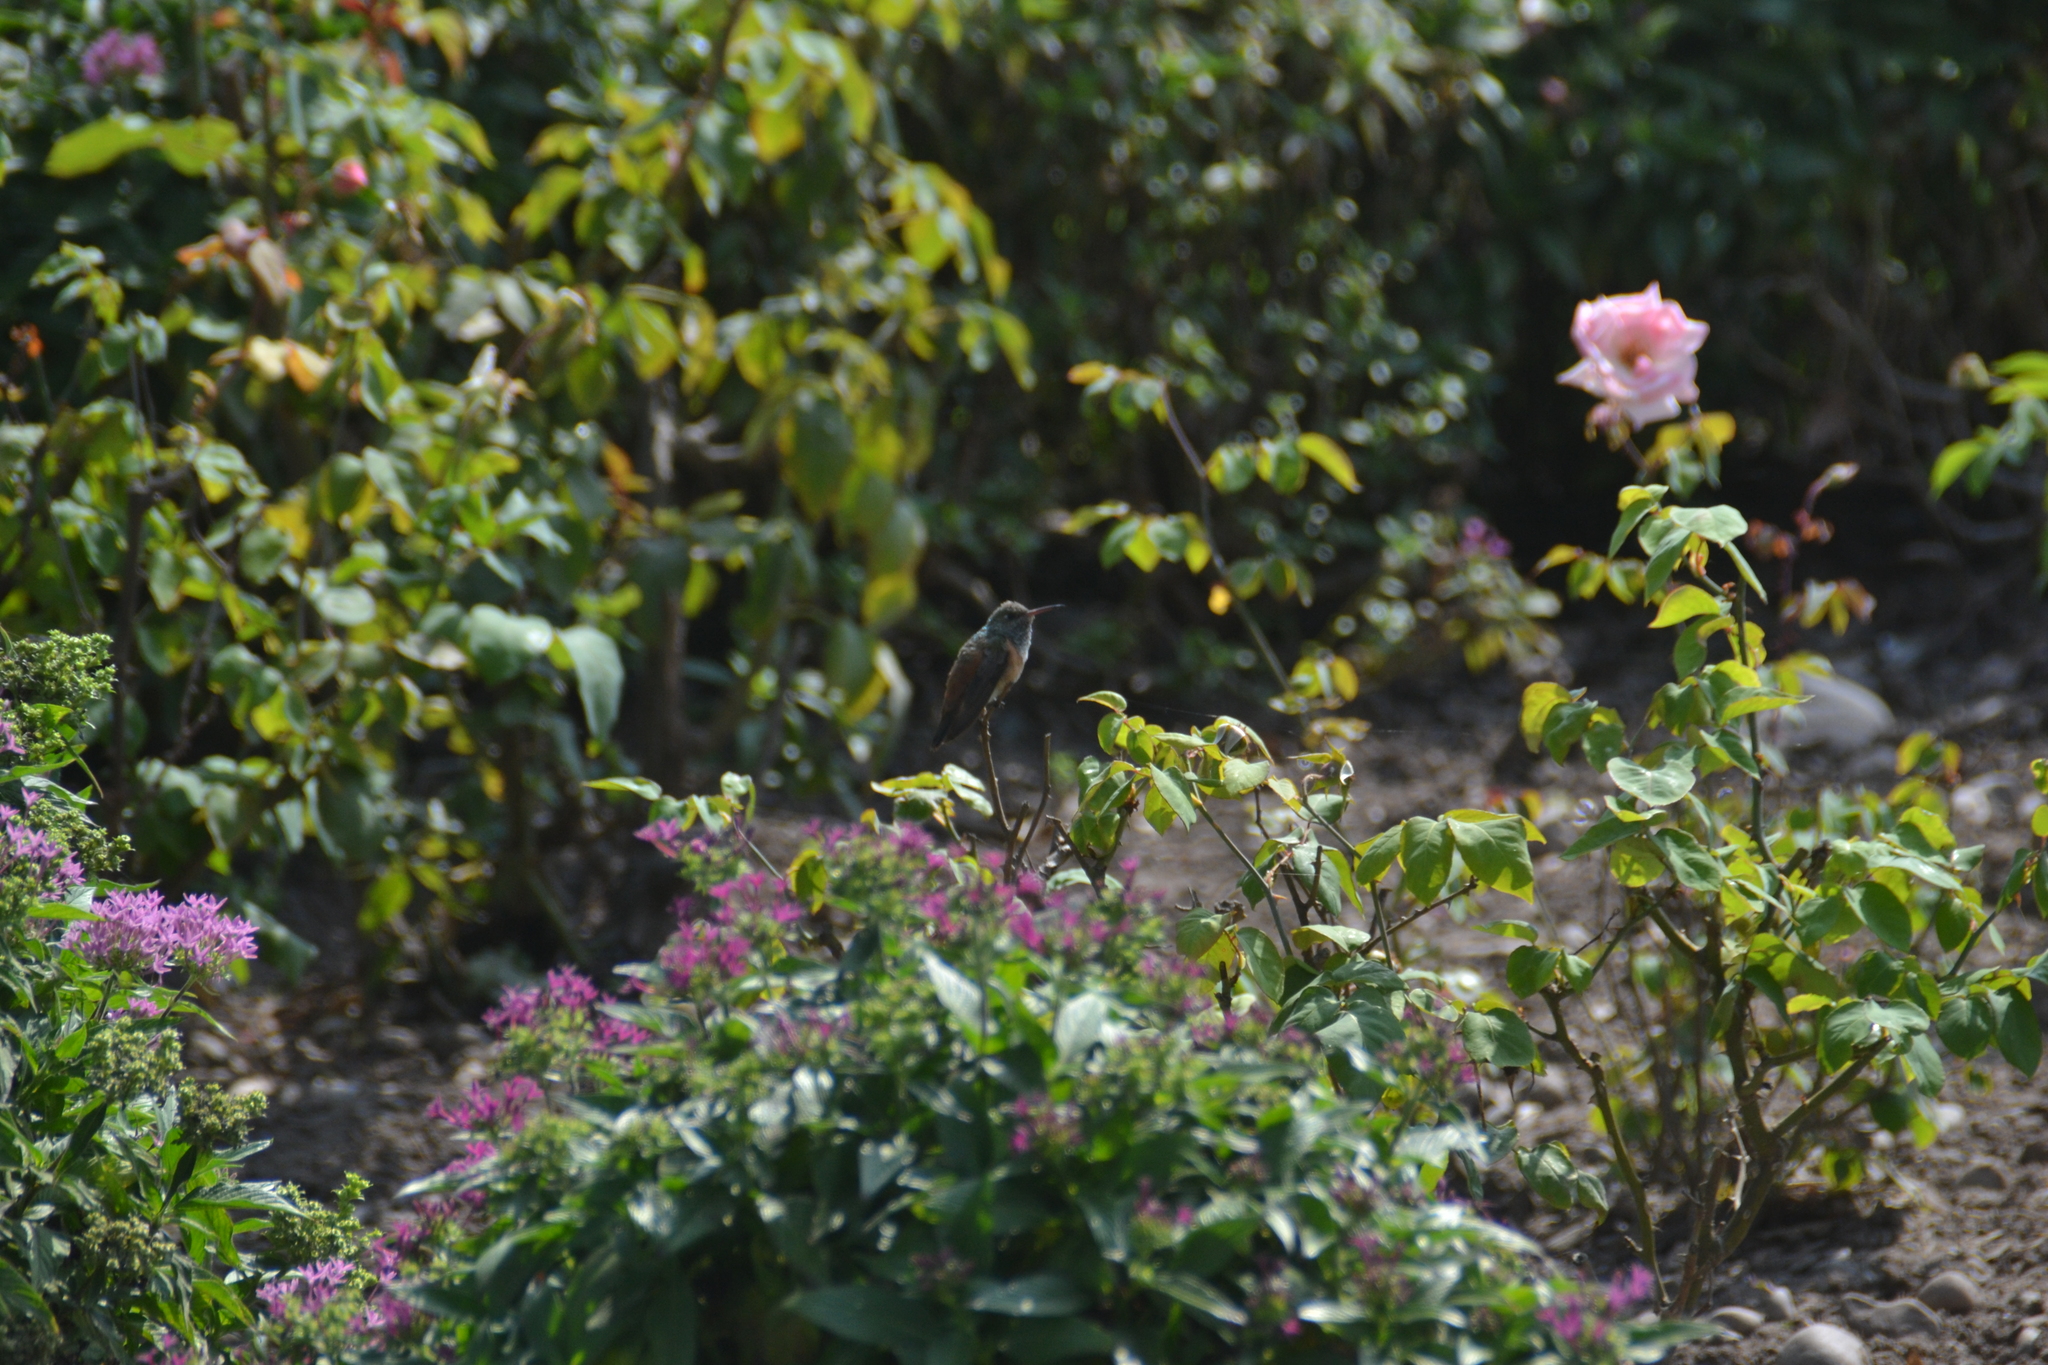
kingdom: Animalia
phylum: Chordata
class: Aves
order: Apodiformes
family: Trochilidae
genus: Amazilis
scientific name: Amazilis amazilia
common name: Amazilia hummingbird
